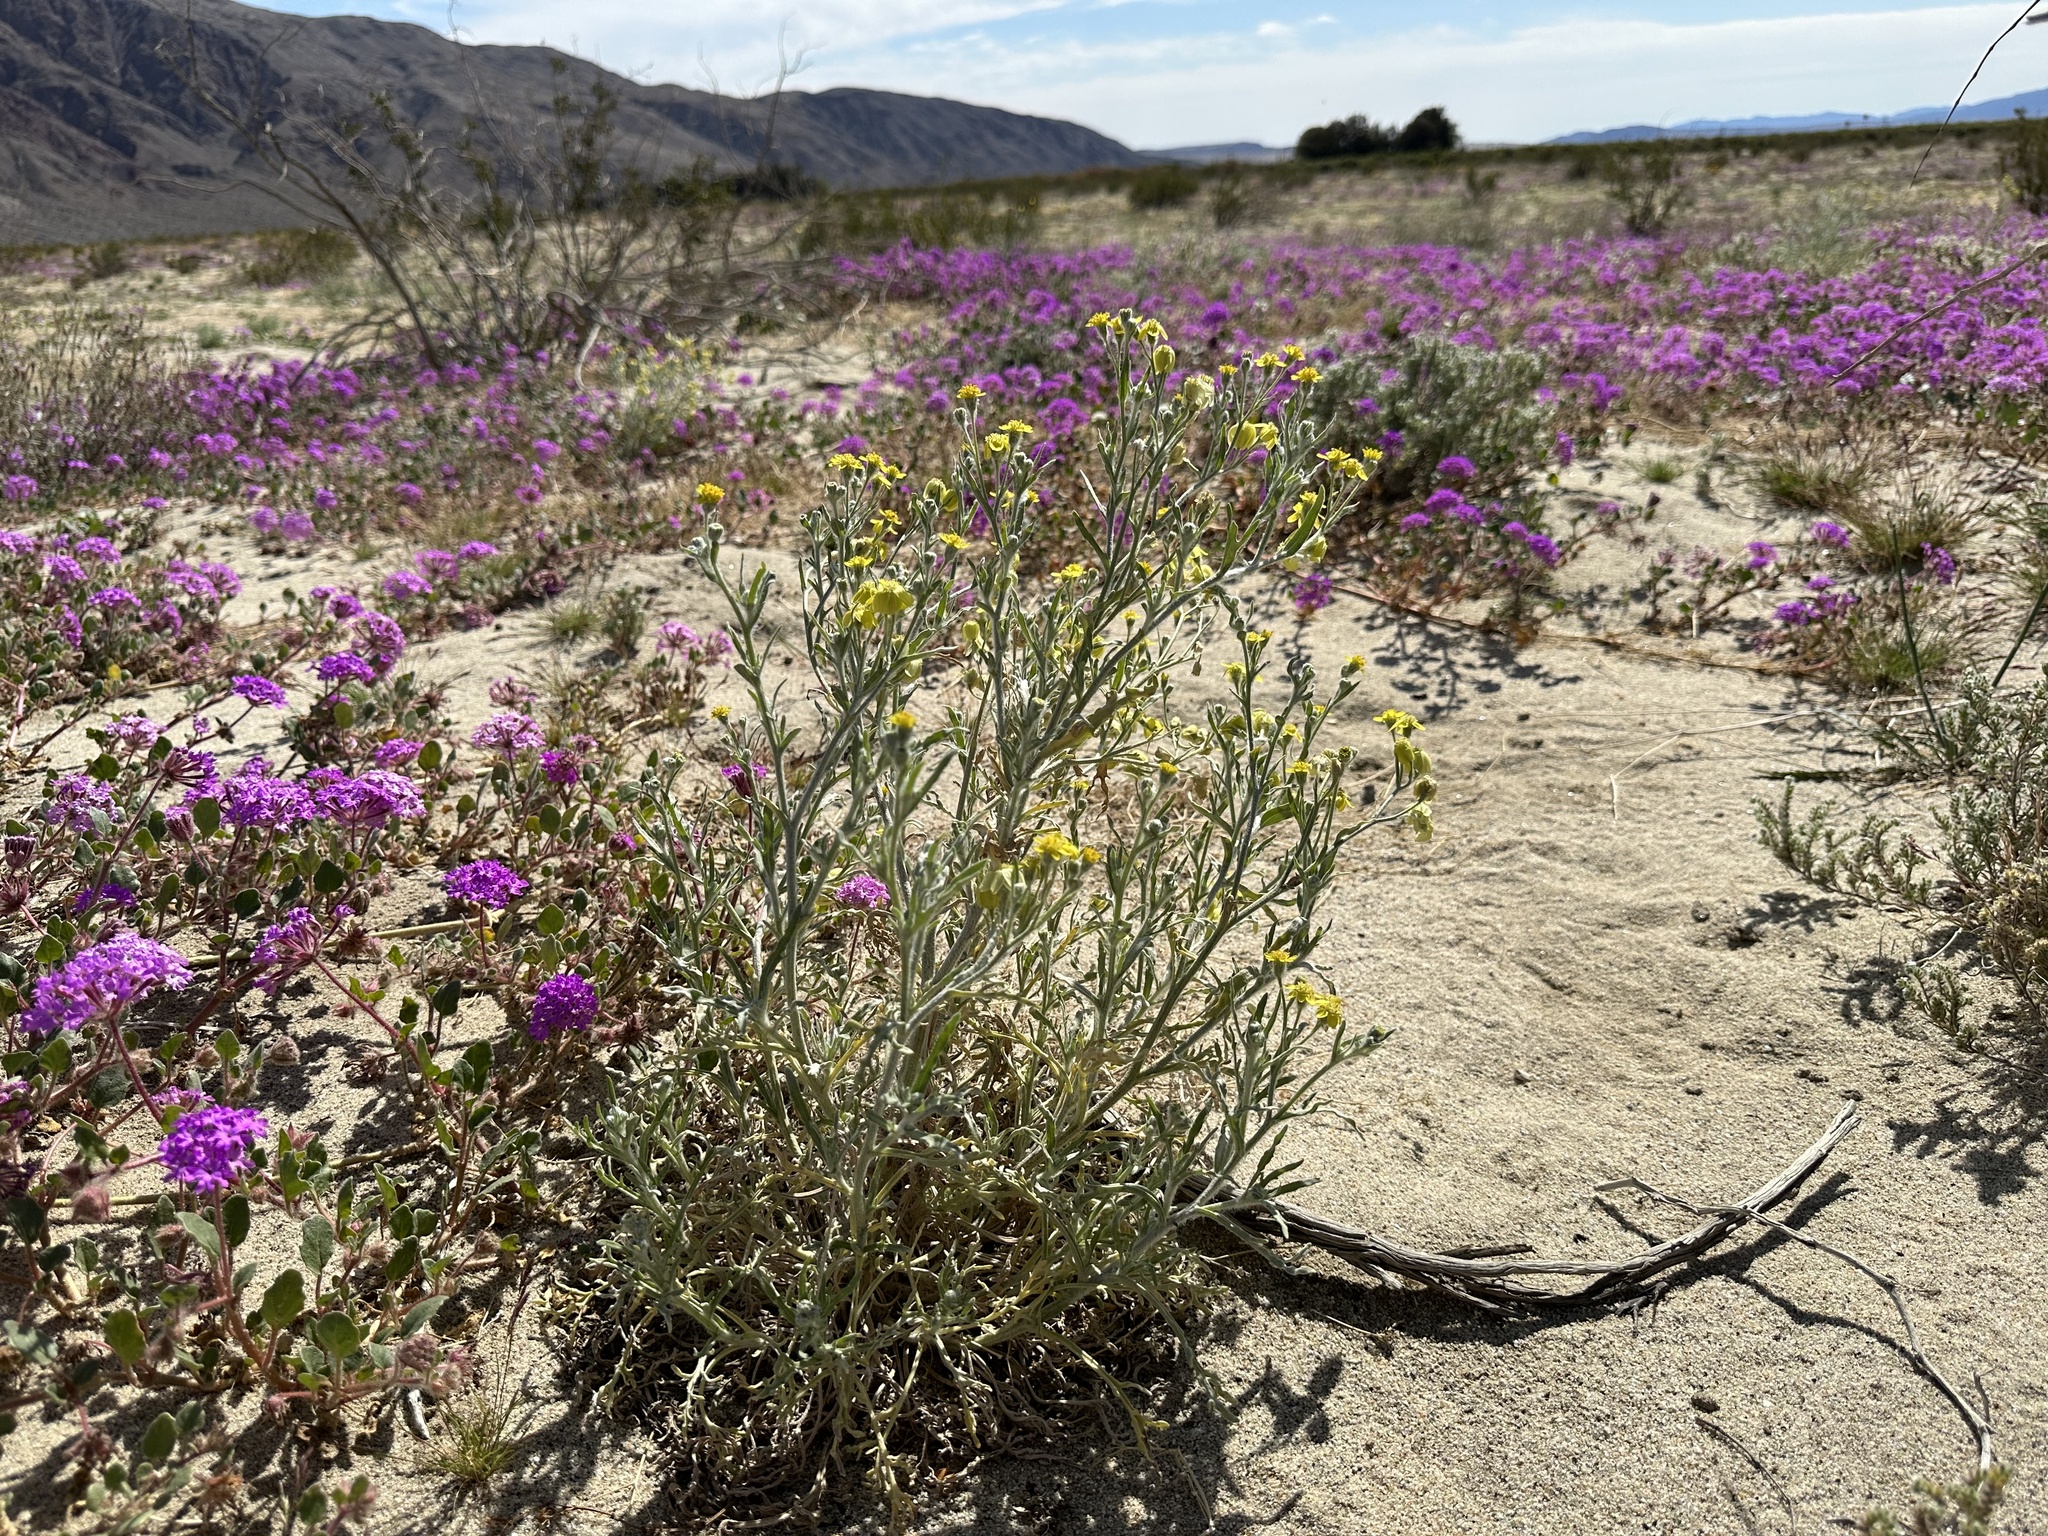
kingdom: Plantae
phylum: Tracheophyta
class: Magnoliopsida
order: Asterales
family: Asteraceae
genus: Baileya
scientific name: Baileya pauciradiata
